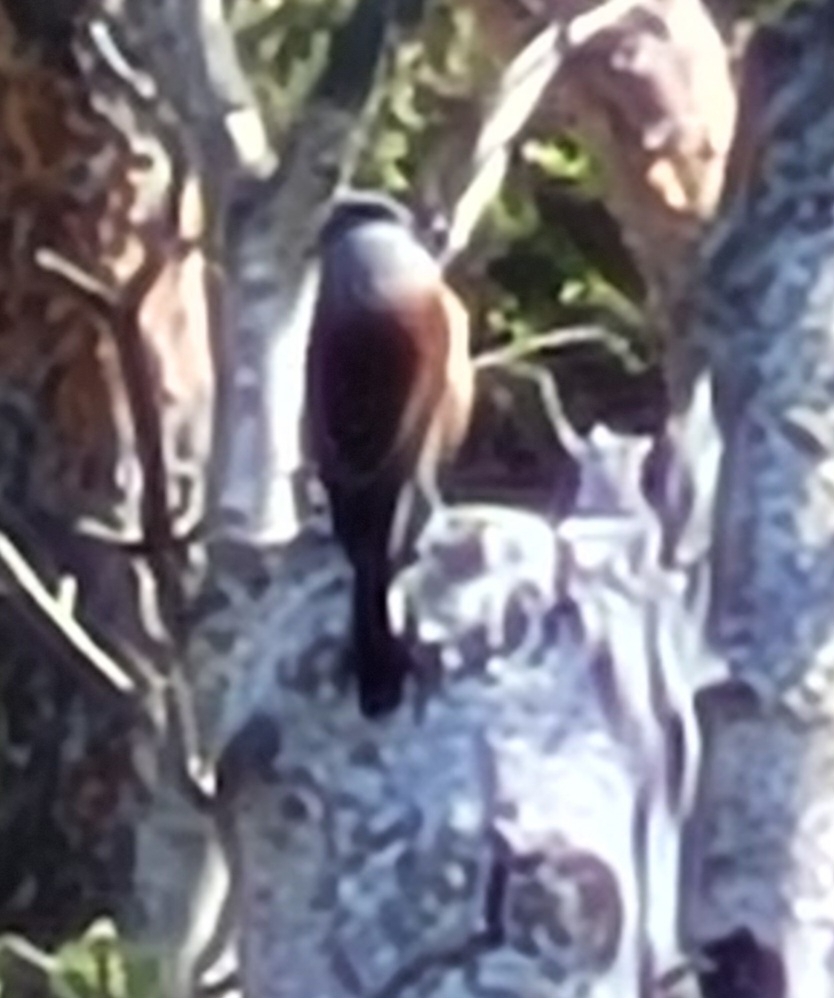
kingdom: Animalia
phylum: Chordata
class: Aves
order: Passeriformes
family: Laniidae
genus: Lanius
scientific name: Lanius collurio
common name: Red-backed shrike
